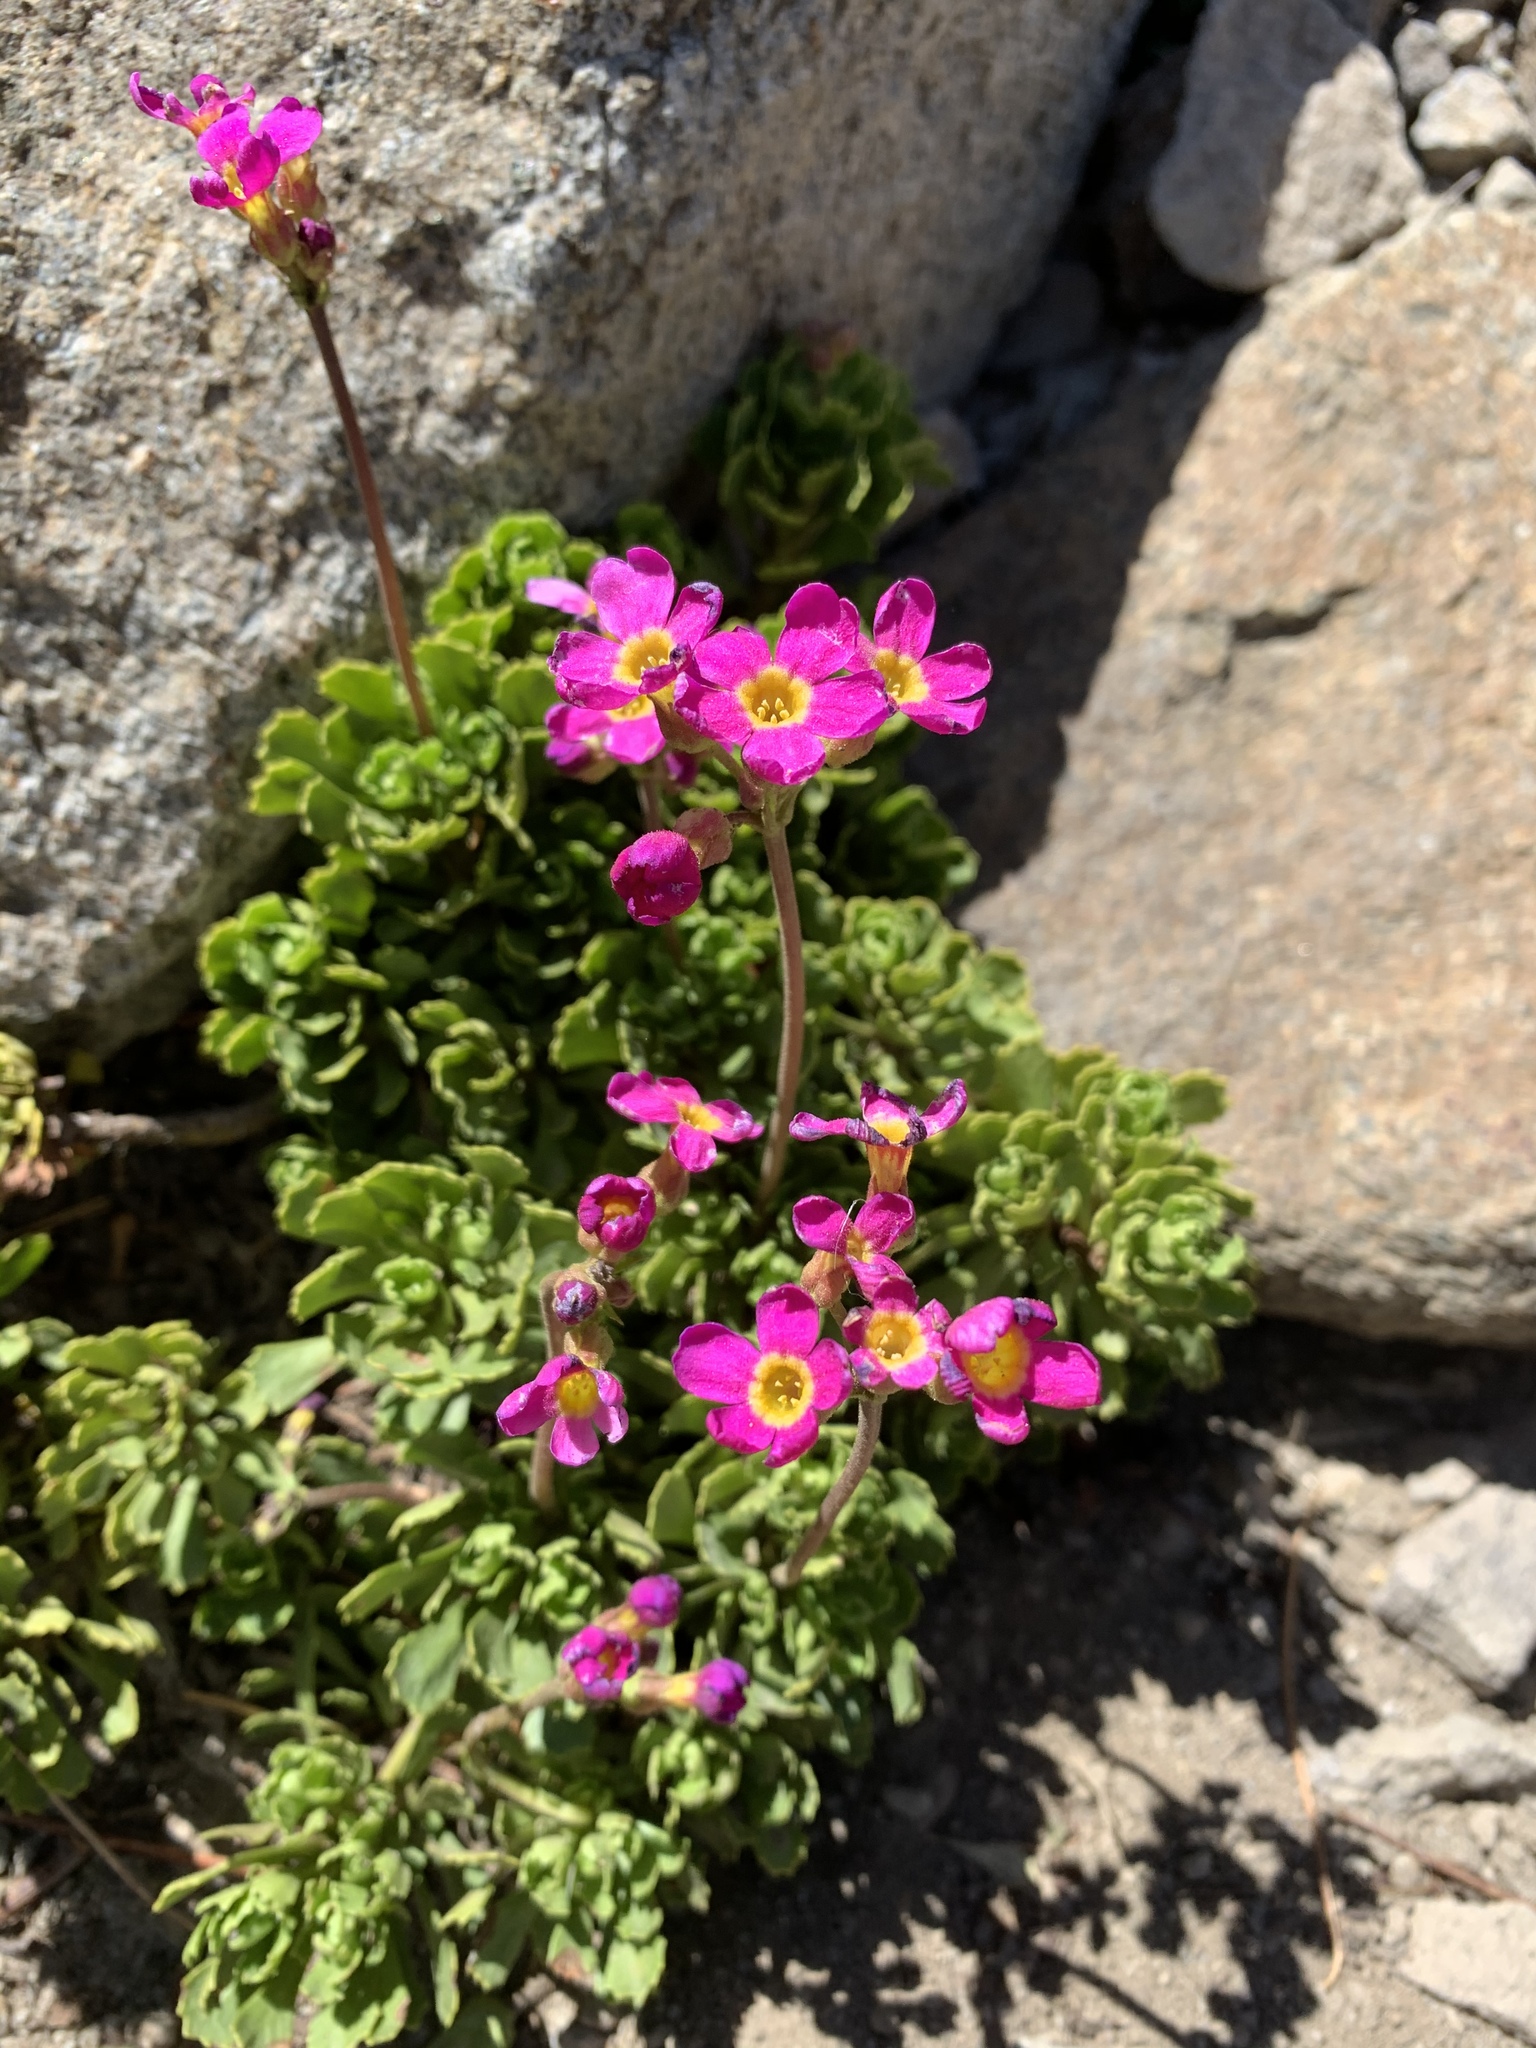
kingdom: Plantae
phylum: Tracheophyta
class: Magnoliopsida
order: Ericales
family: Primulaceae
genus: Primula
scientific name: Primula suffrutescens
